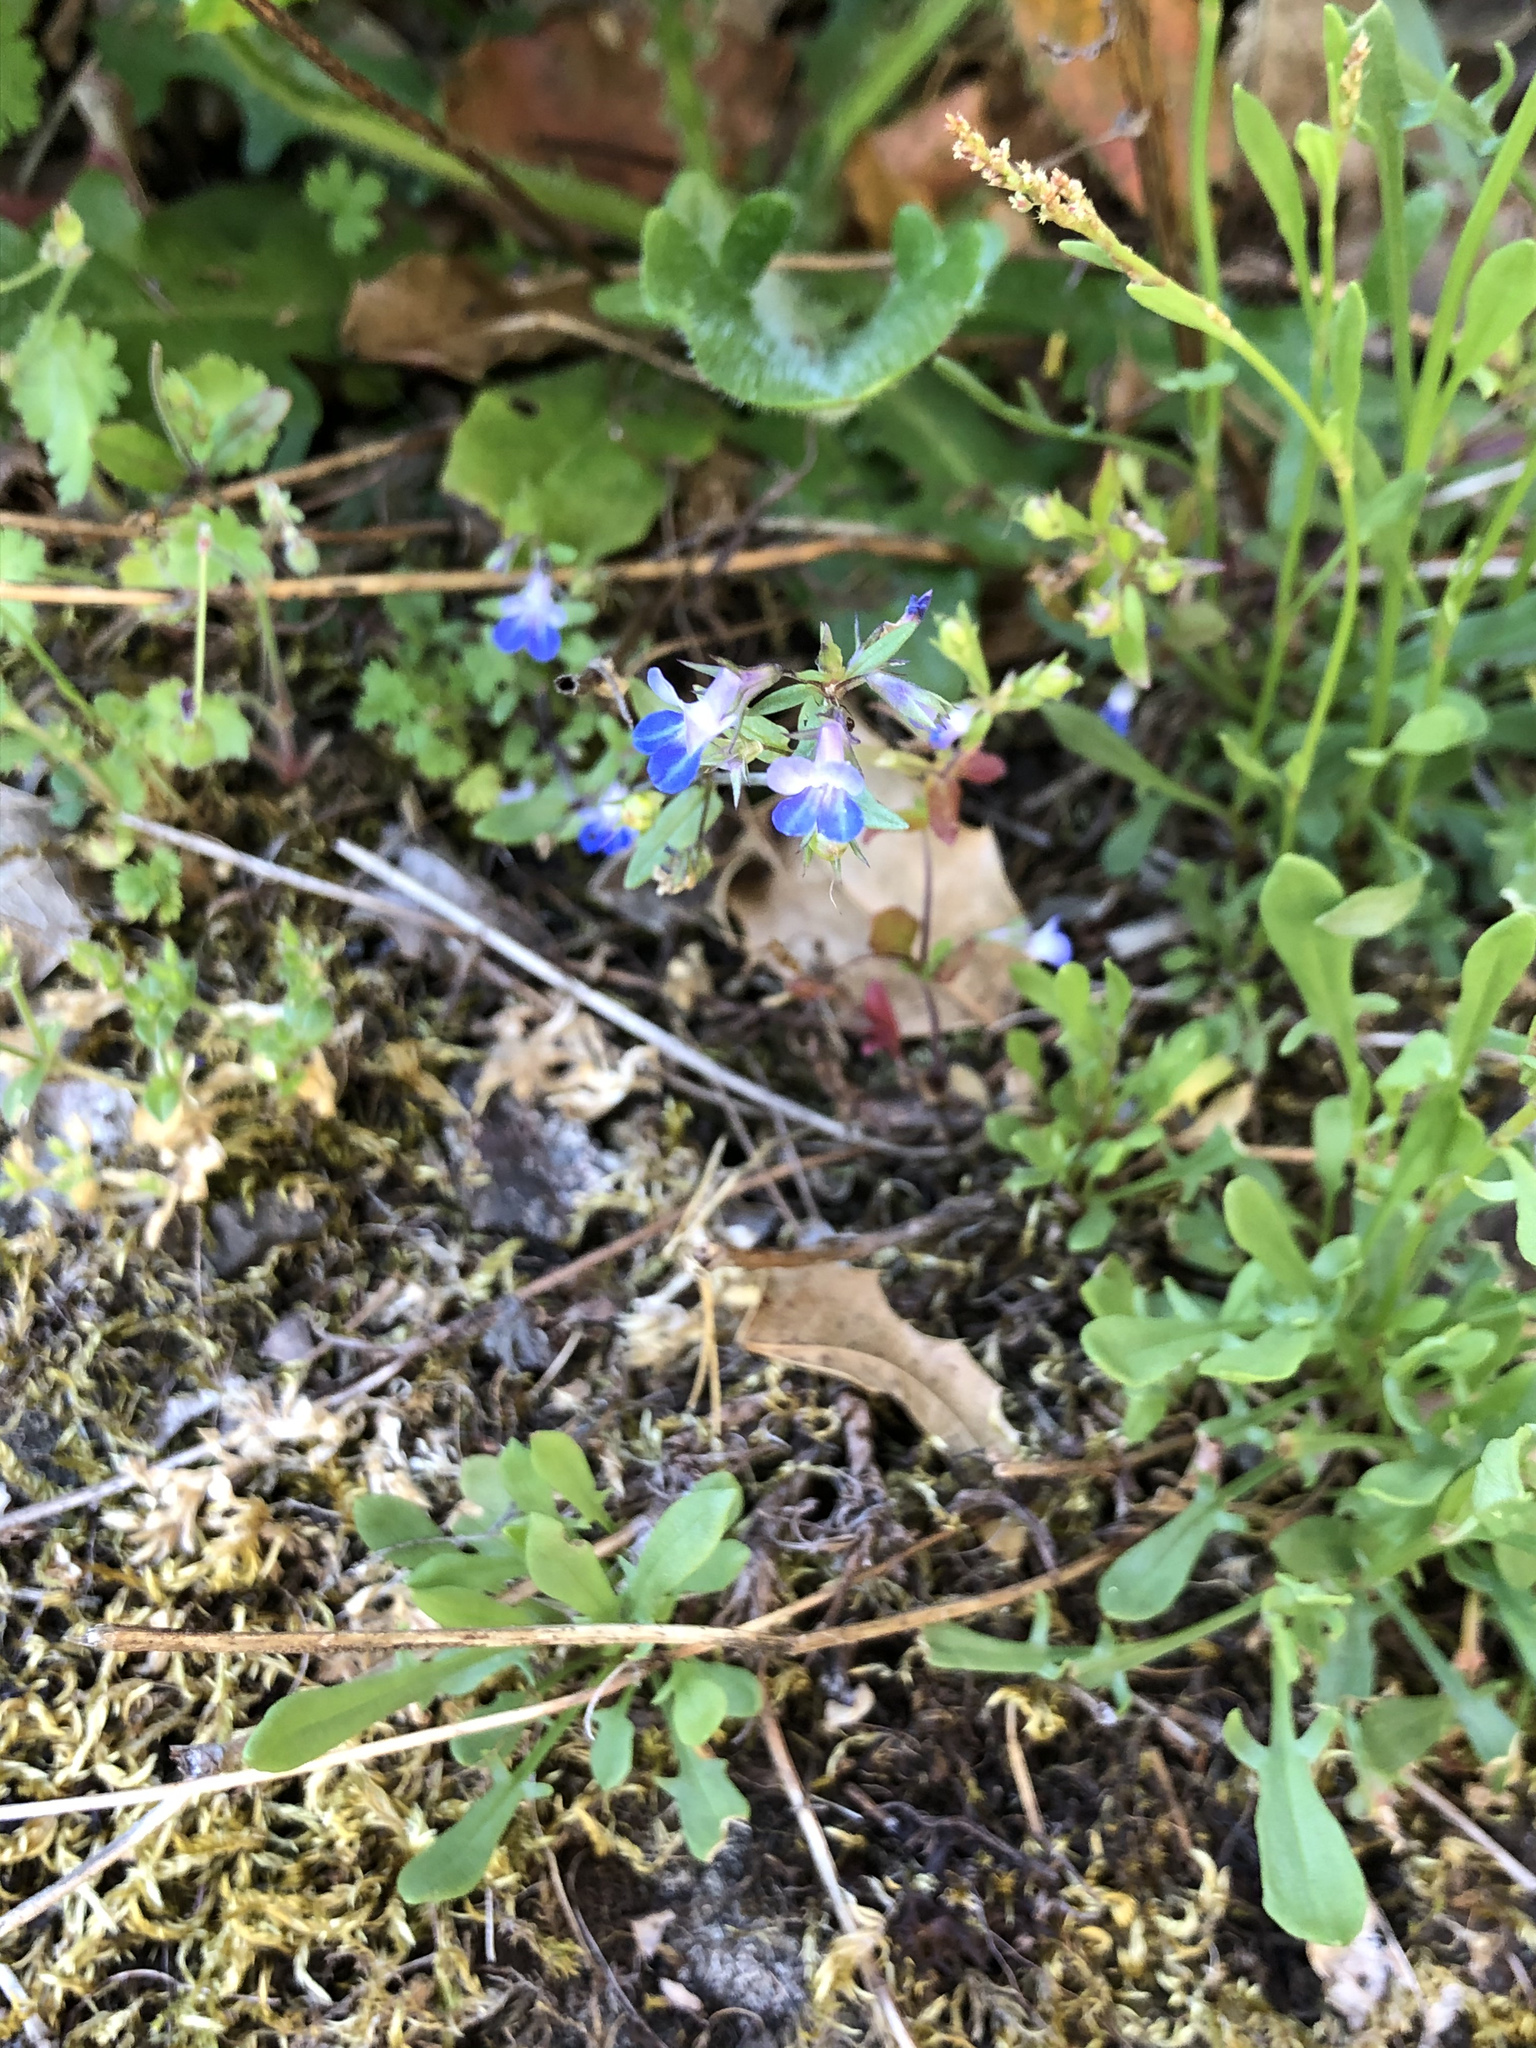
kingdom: Plantae
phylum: Tracheophyta
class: Magnoliopsida
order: Lamiales
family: Plantaginaceae
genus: Collinsia
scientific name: Collinsia grandiflora
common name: Large-flower blue-eyed-mary
